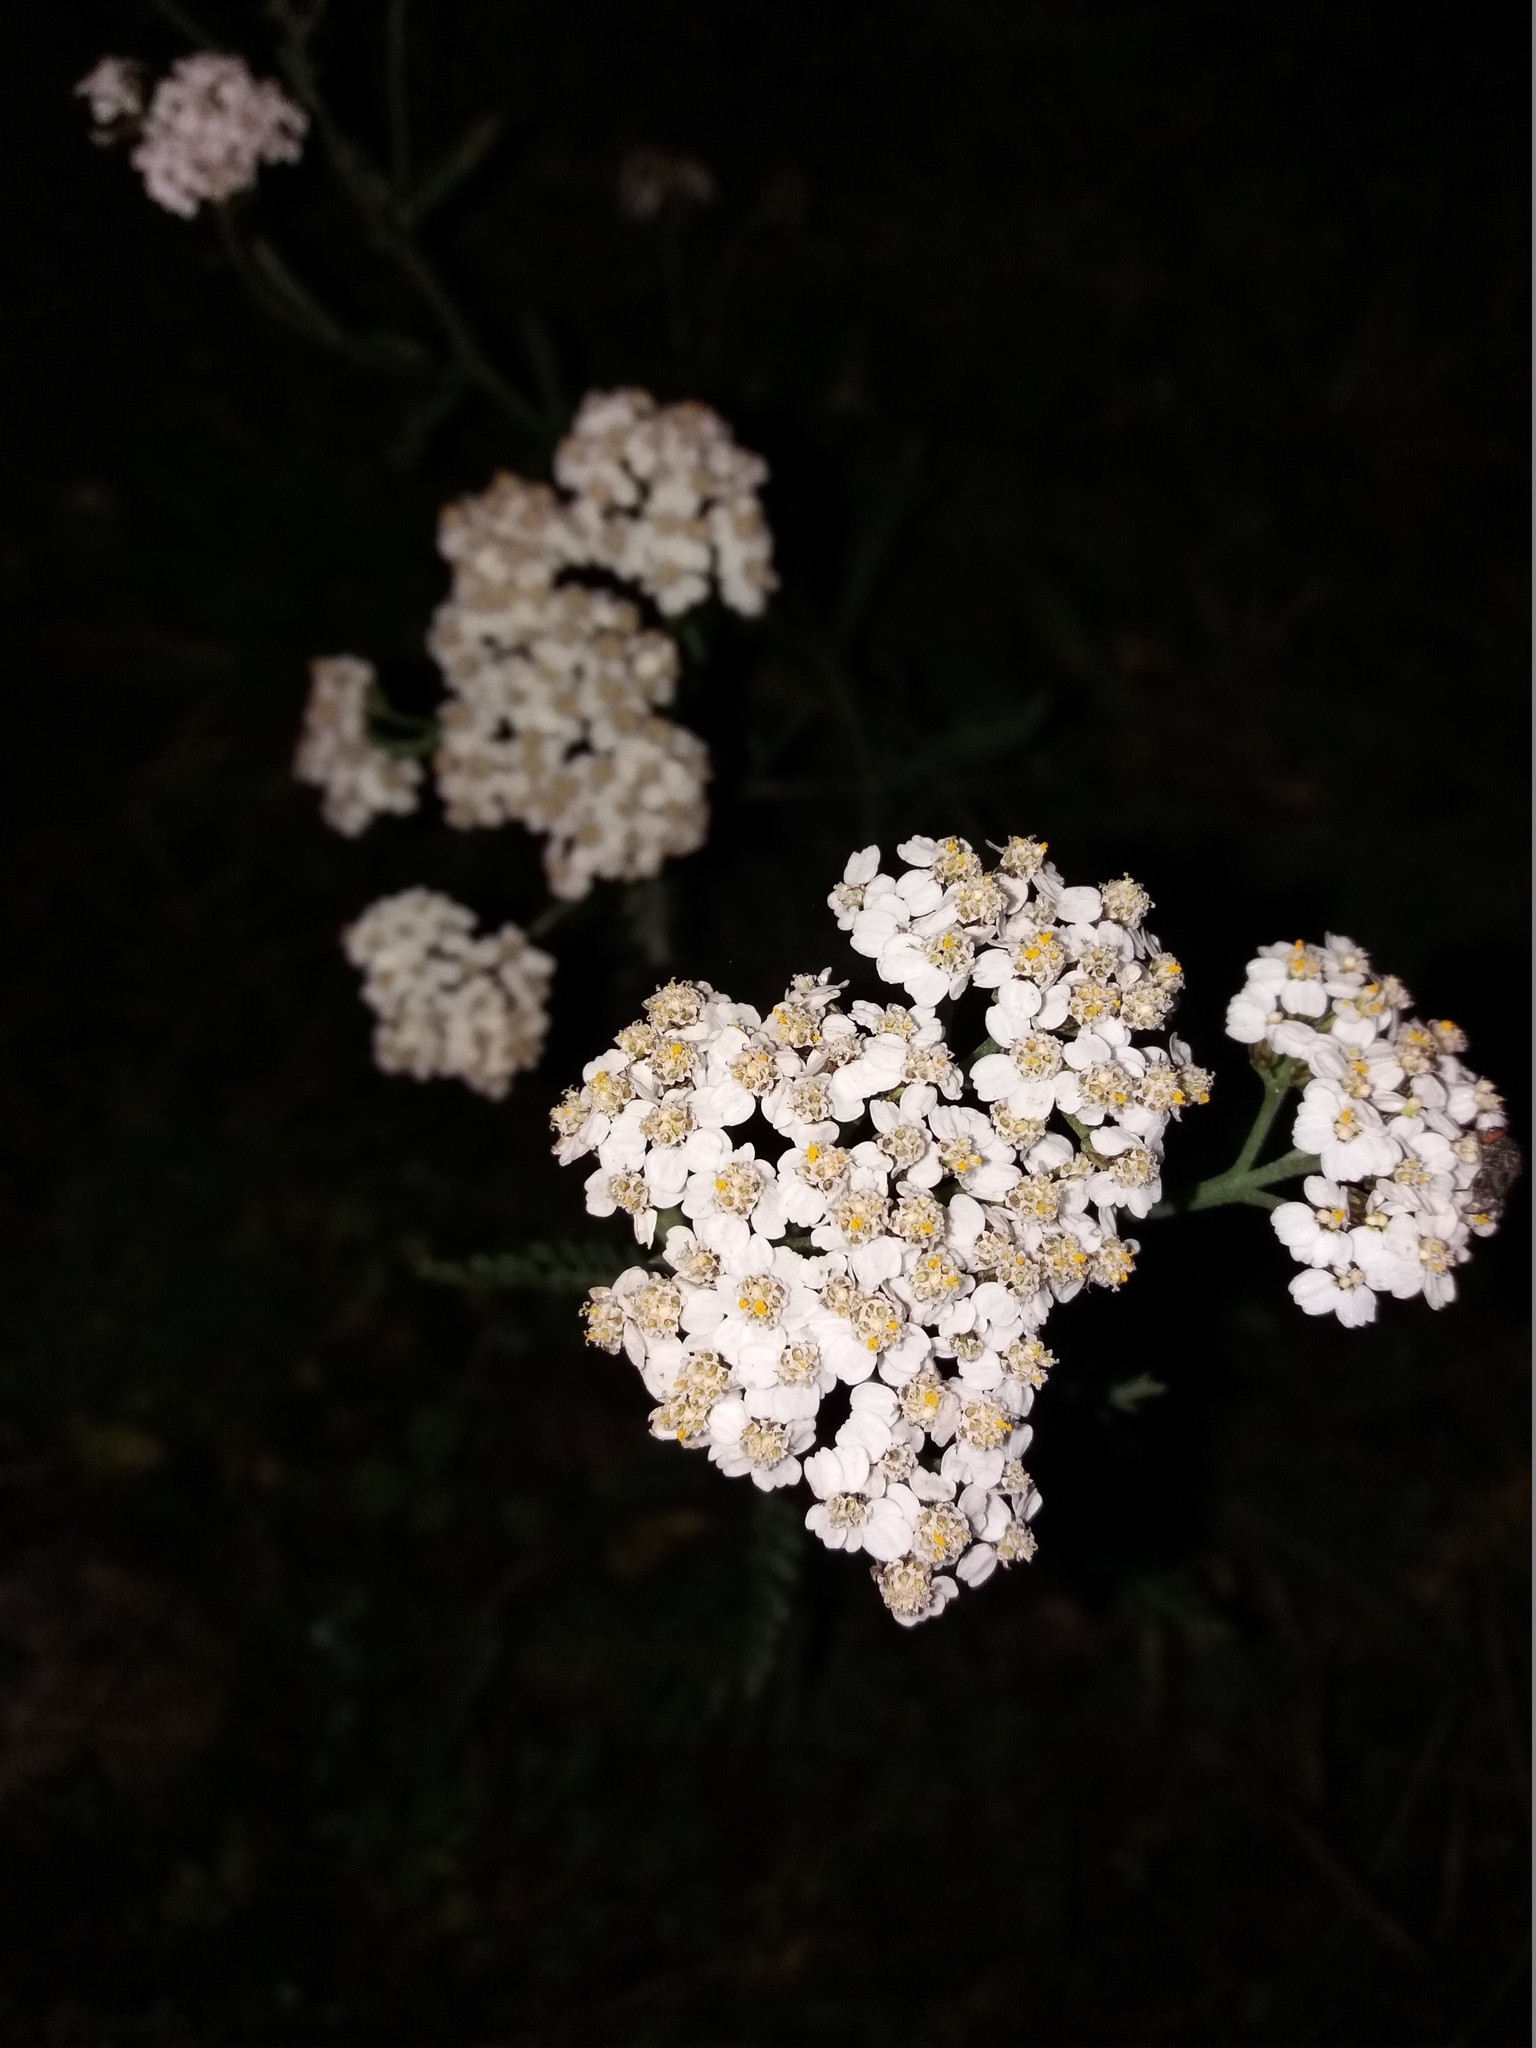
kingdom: Plantae
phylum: Tracheophyta
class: Magnoliopsida
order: Asterales
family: Asteraceae
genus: Achillea
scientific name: Achillea millefolium
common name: Yarrow
